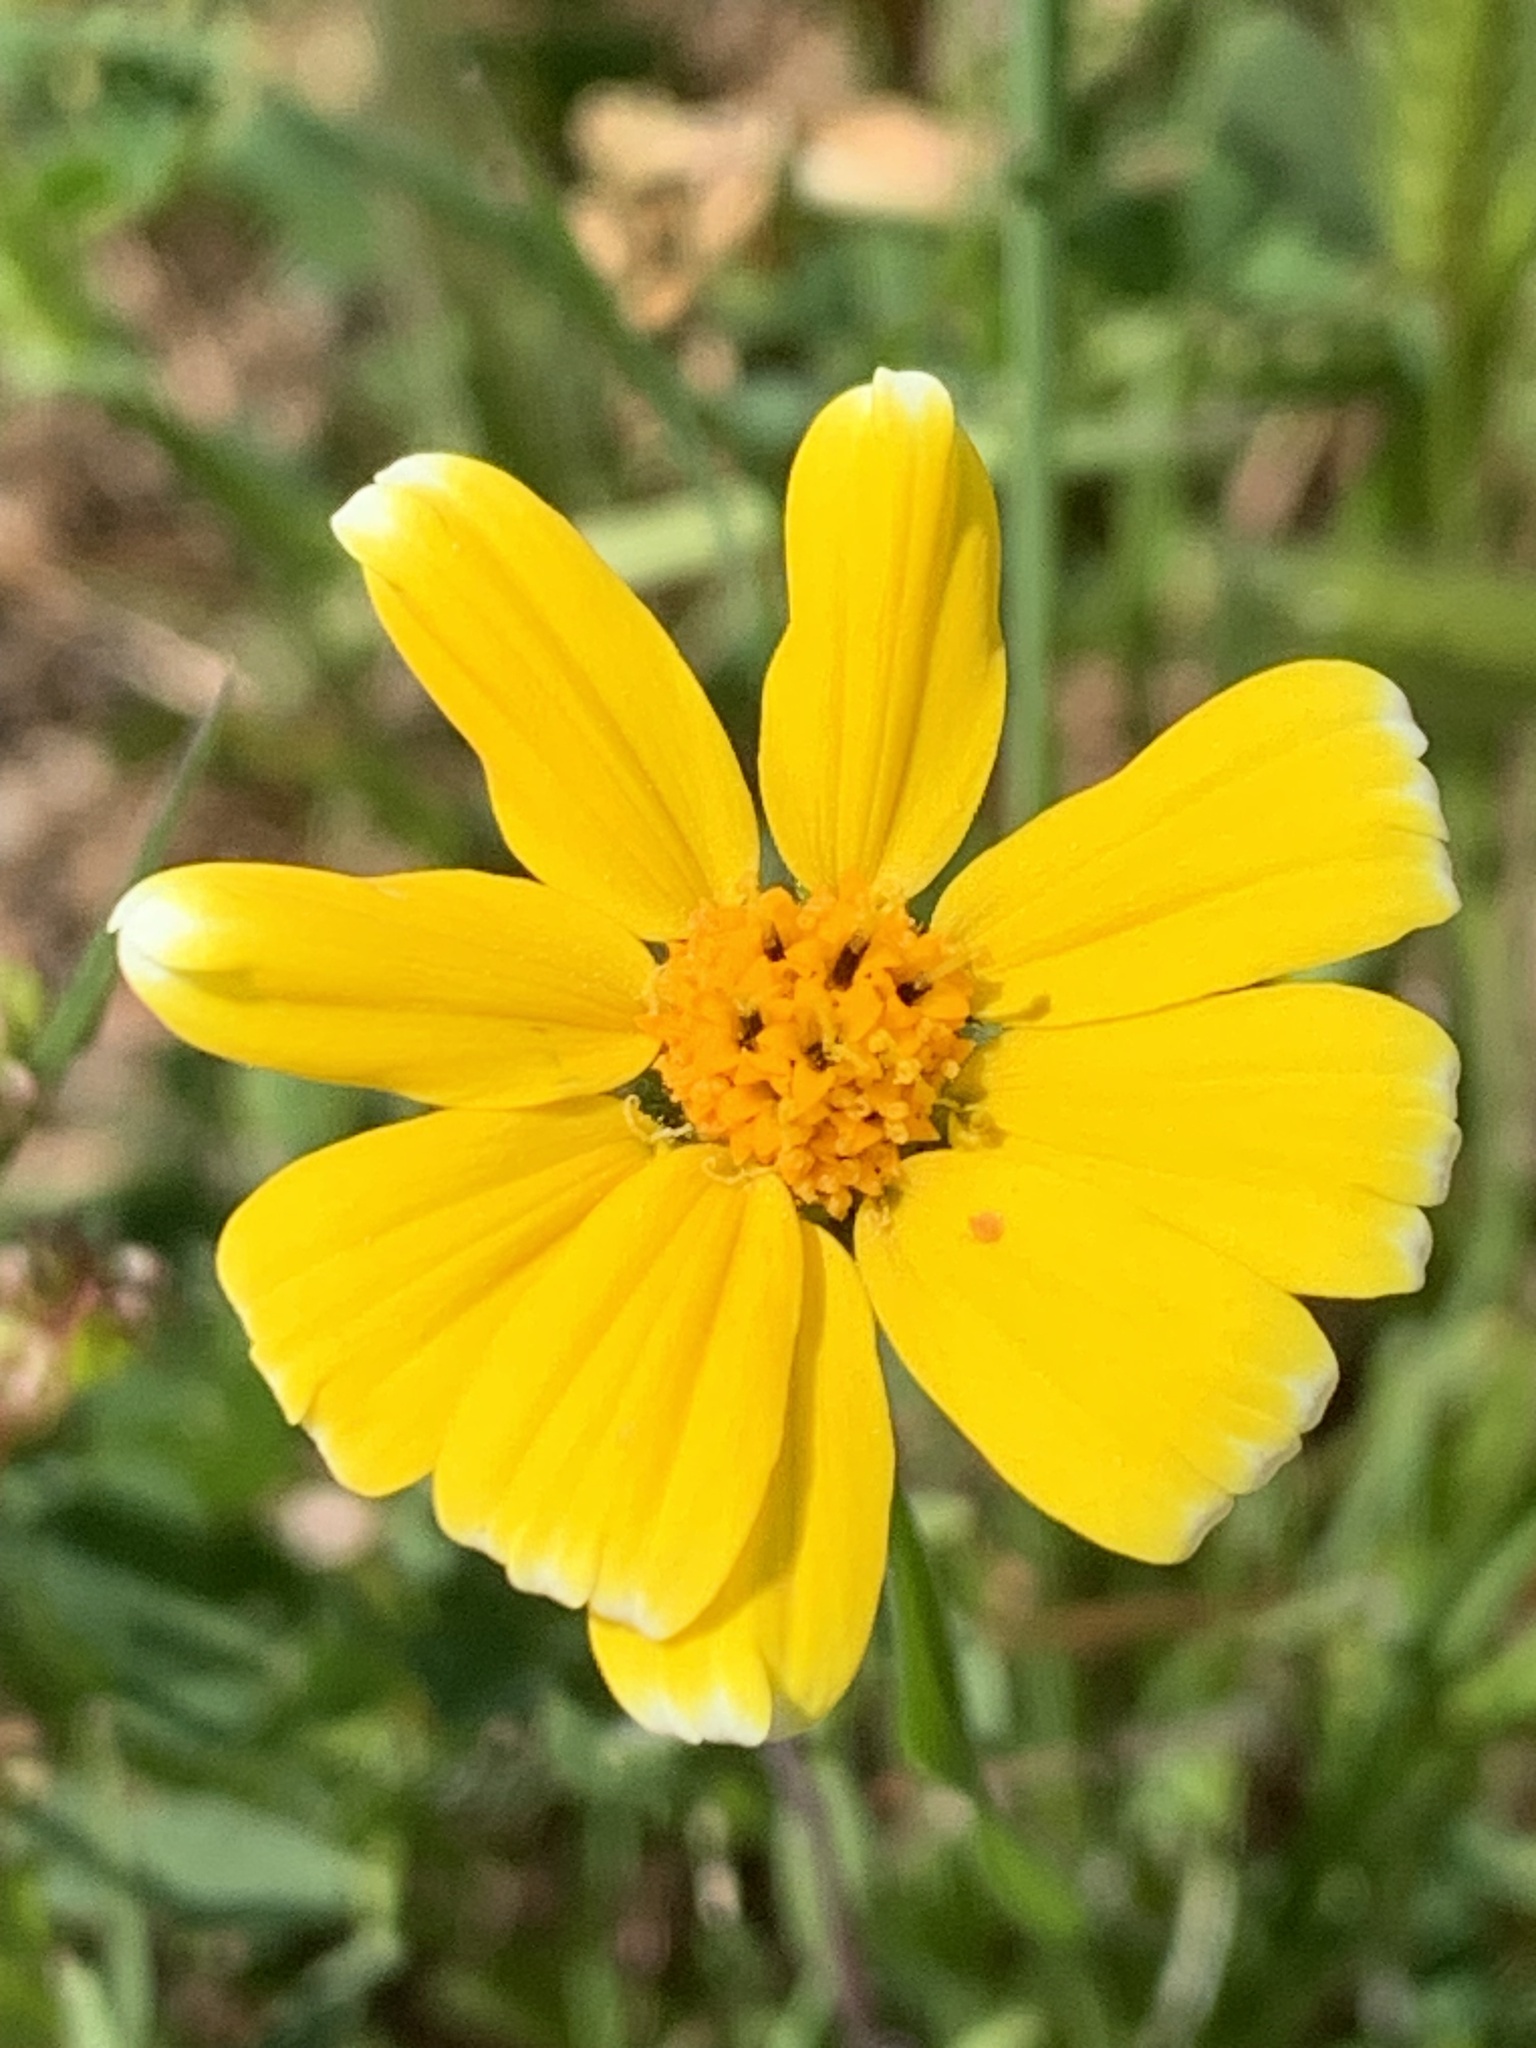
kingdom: Plantae
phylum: Tracheophyta
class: Magnoliopsida
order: Asterales
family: Asteraceae
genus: Layia
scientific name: Layia platyglossa
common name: Tidy-tips
